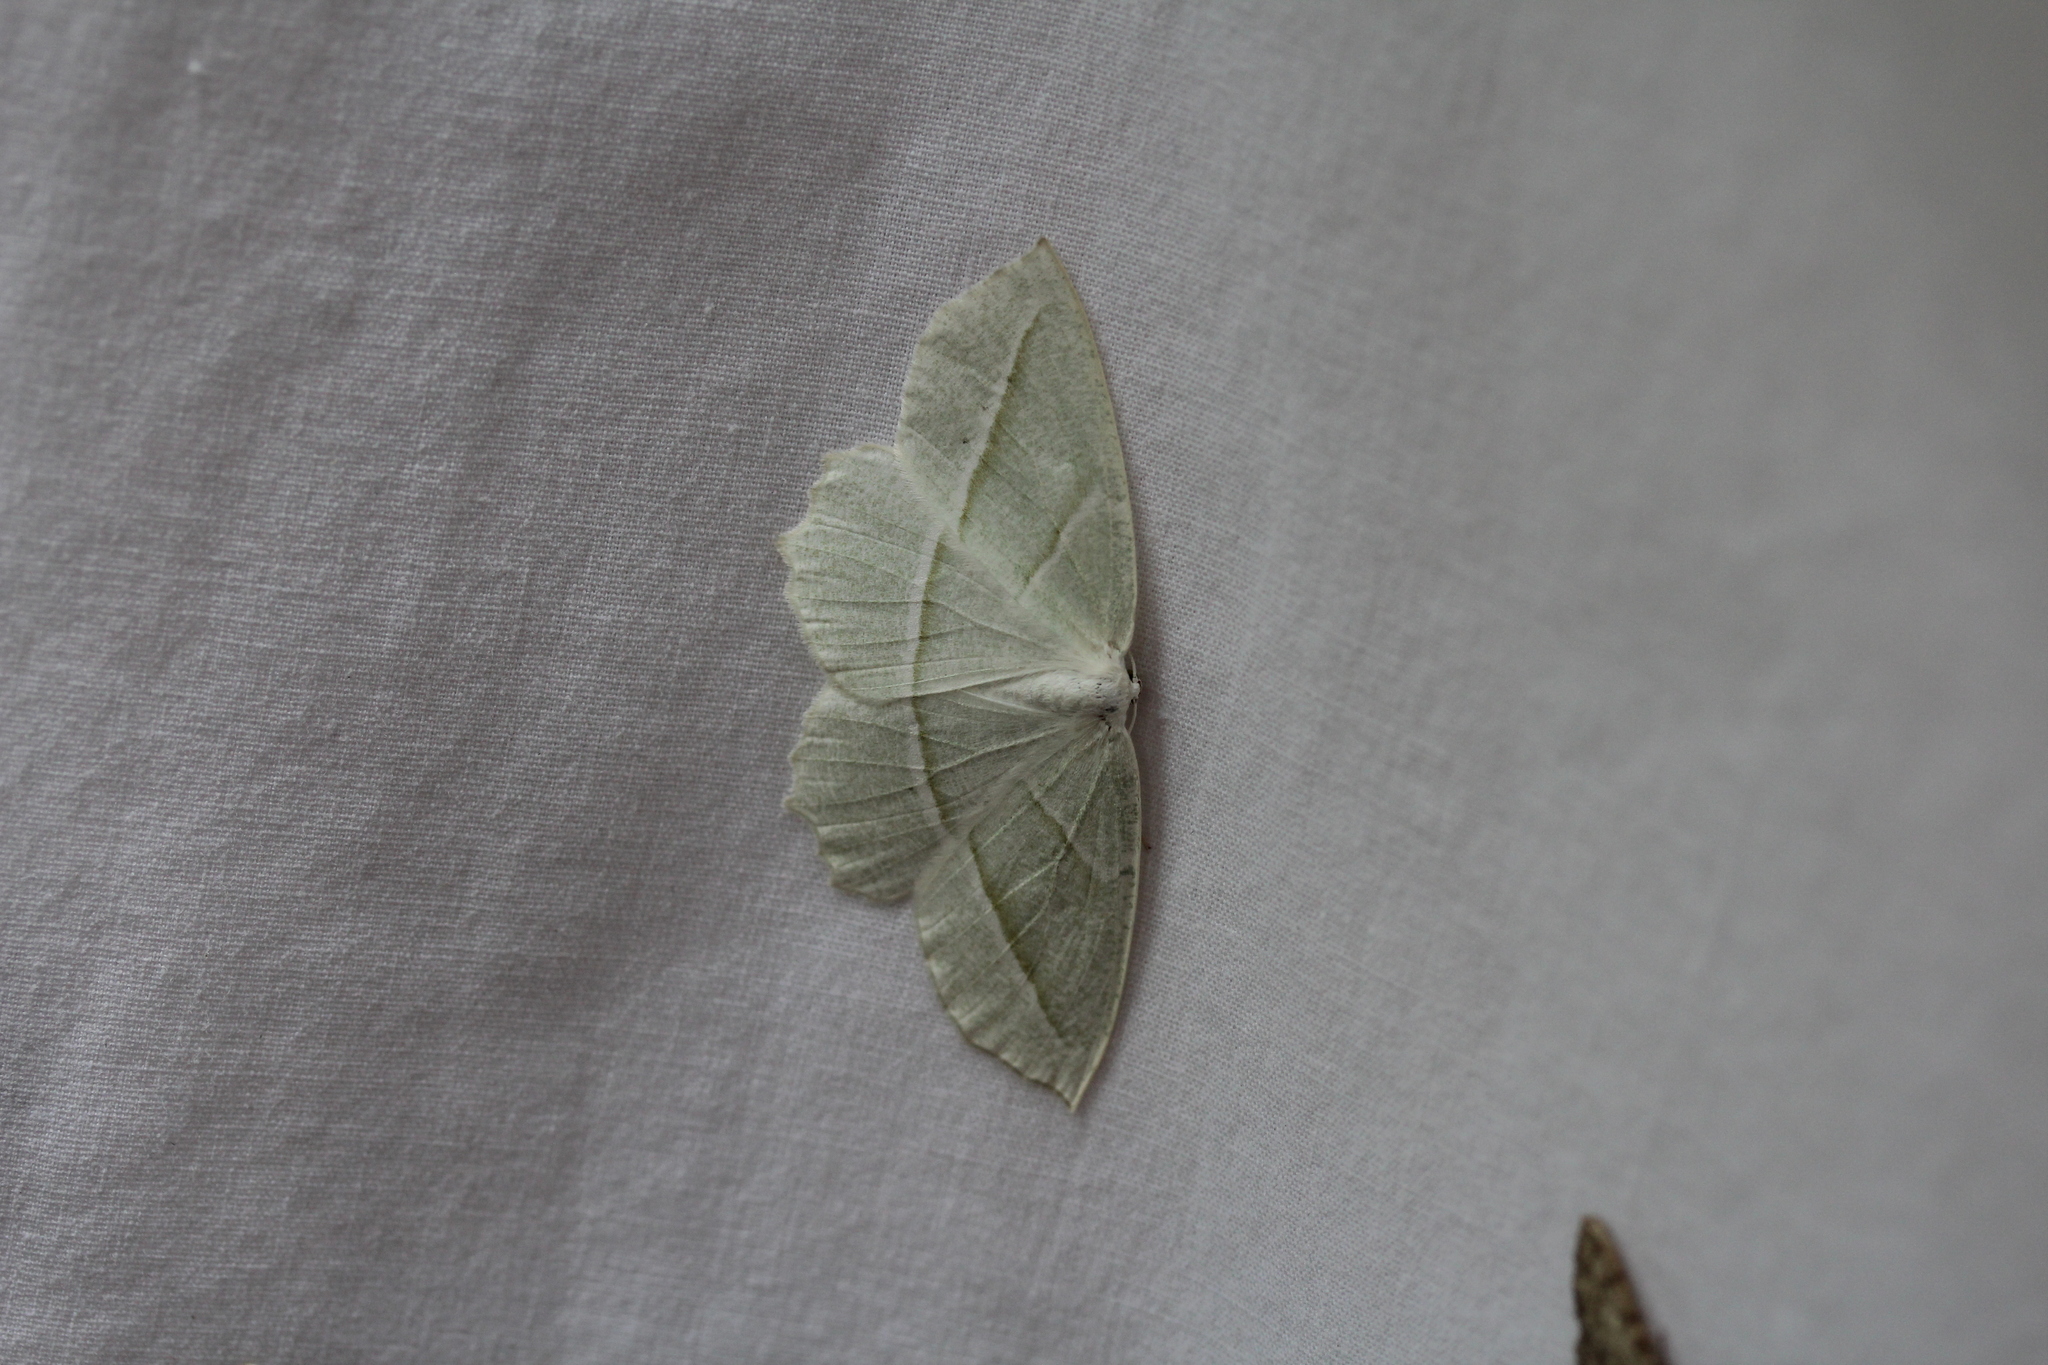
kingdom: Animalia
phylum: Arthropoda
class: Insecta
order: Lepidoptera
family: Geometridae
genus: Campaea
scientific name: Campaea perlata
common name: Fringed looper
